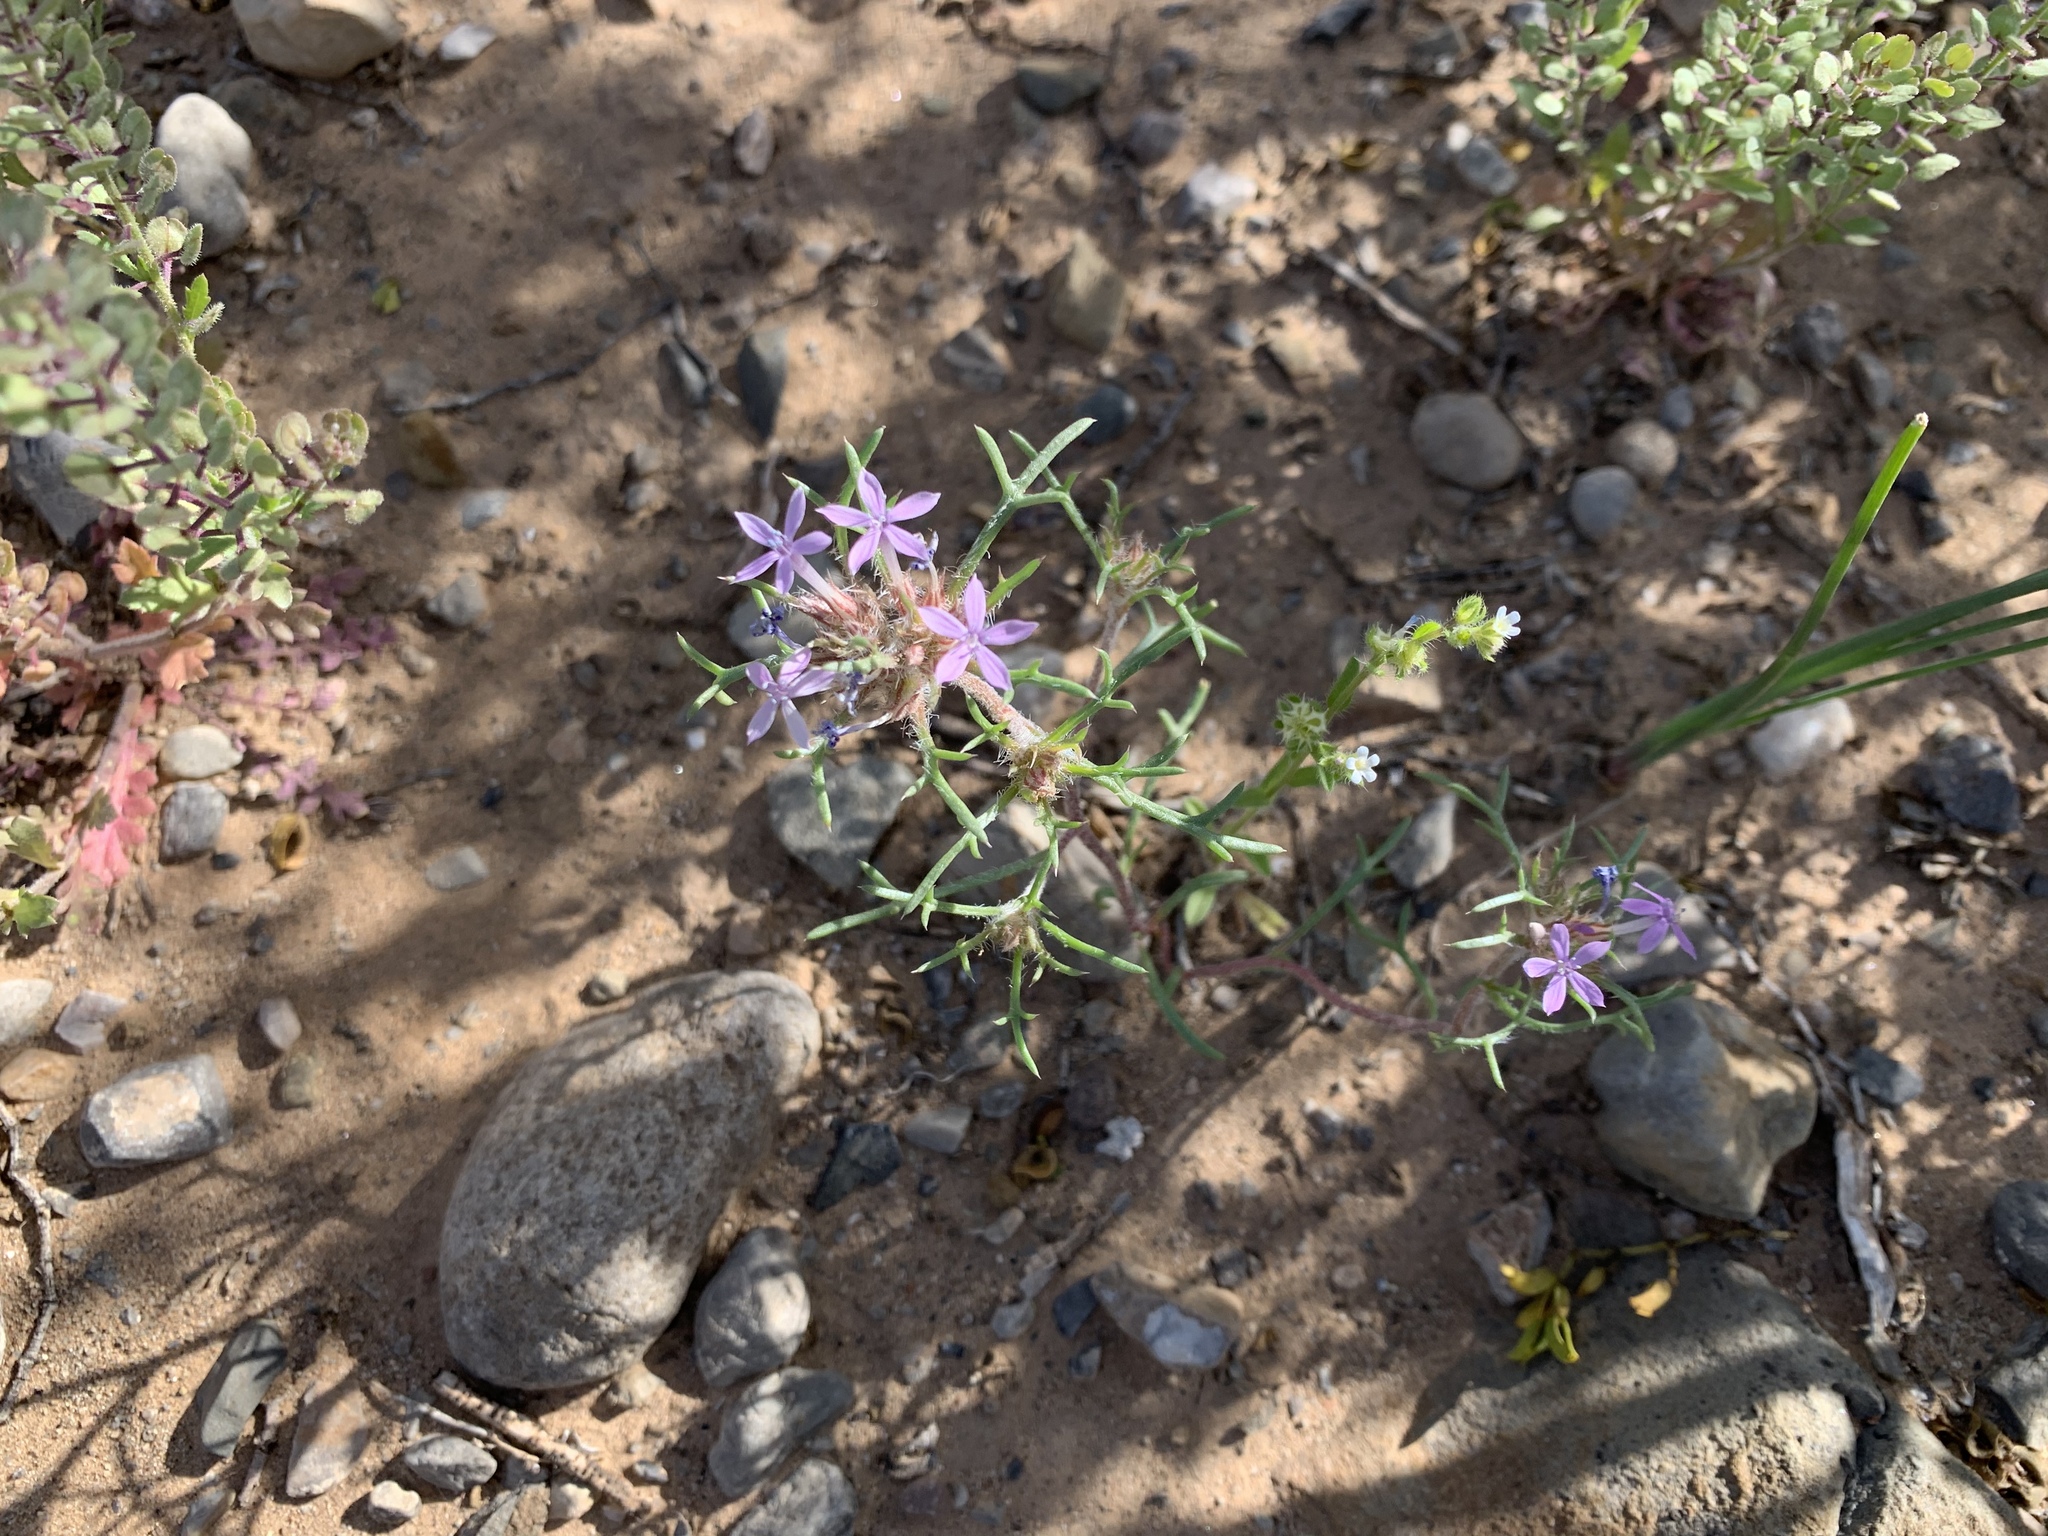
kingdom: Plantae
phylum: Tracheophyta
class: Magnoliopsida
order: Ericales
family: Polemoniaceae
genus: Ipomopsis
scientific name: Ipomopsis pumila
